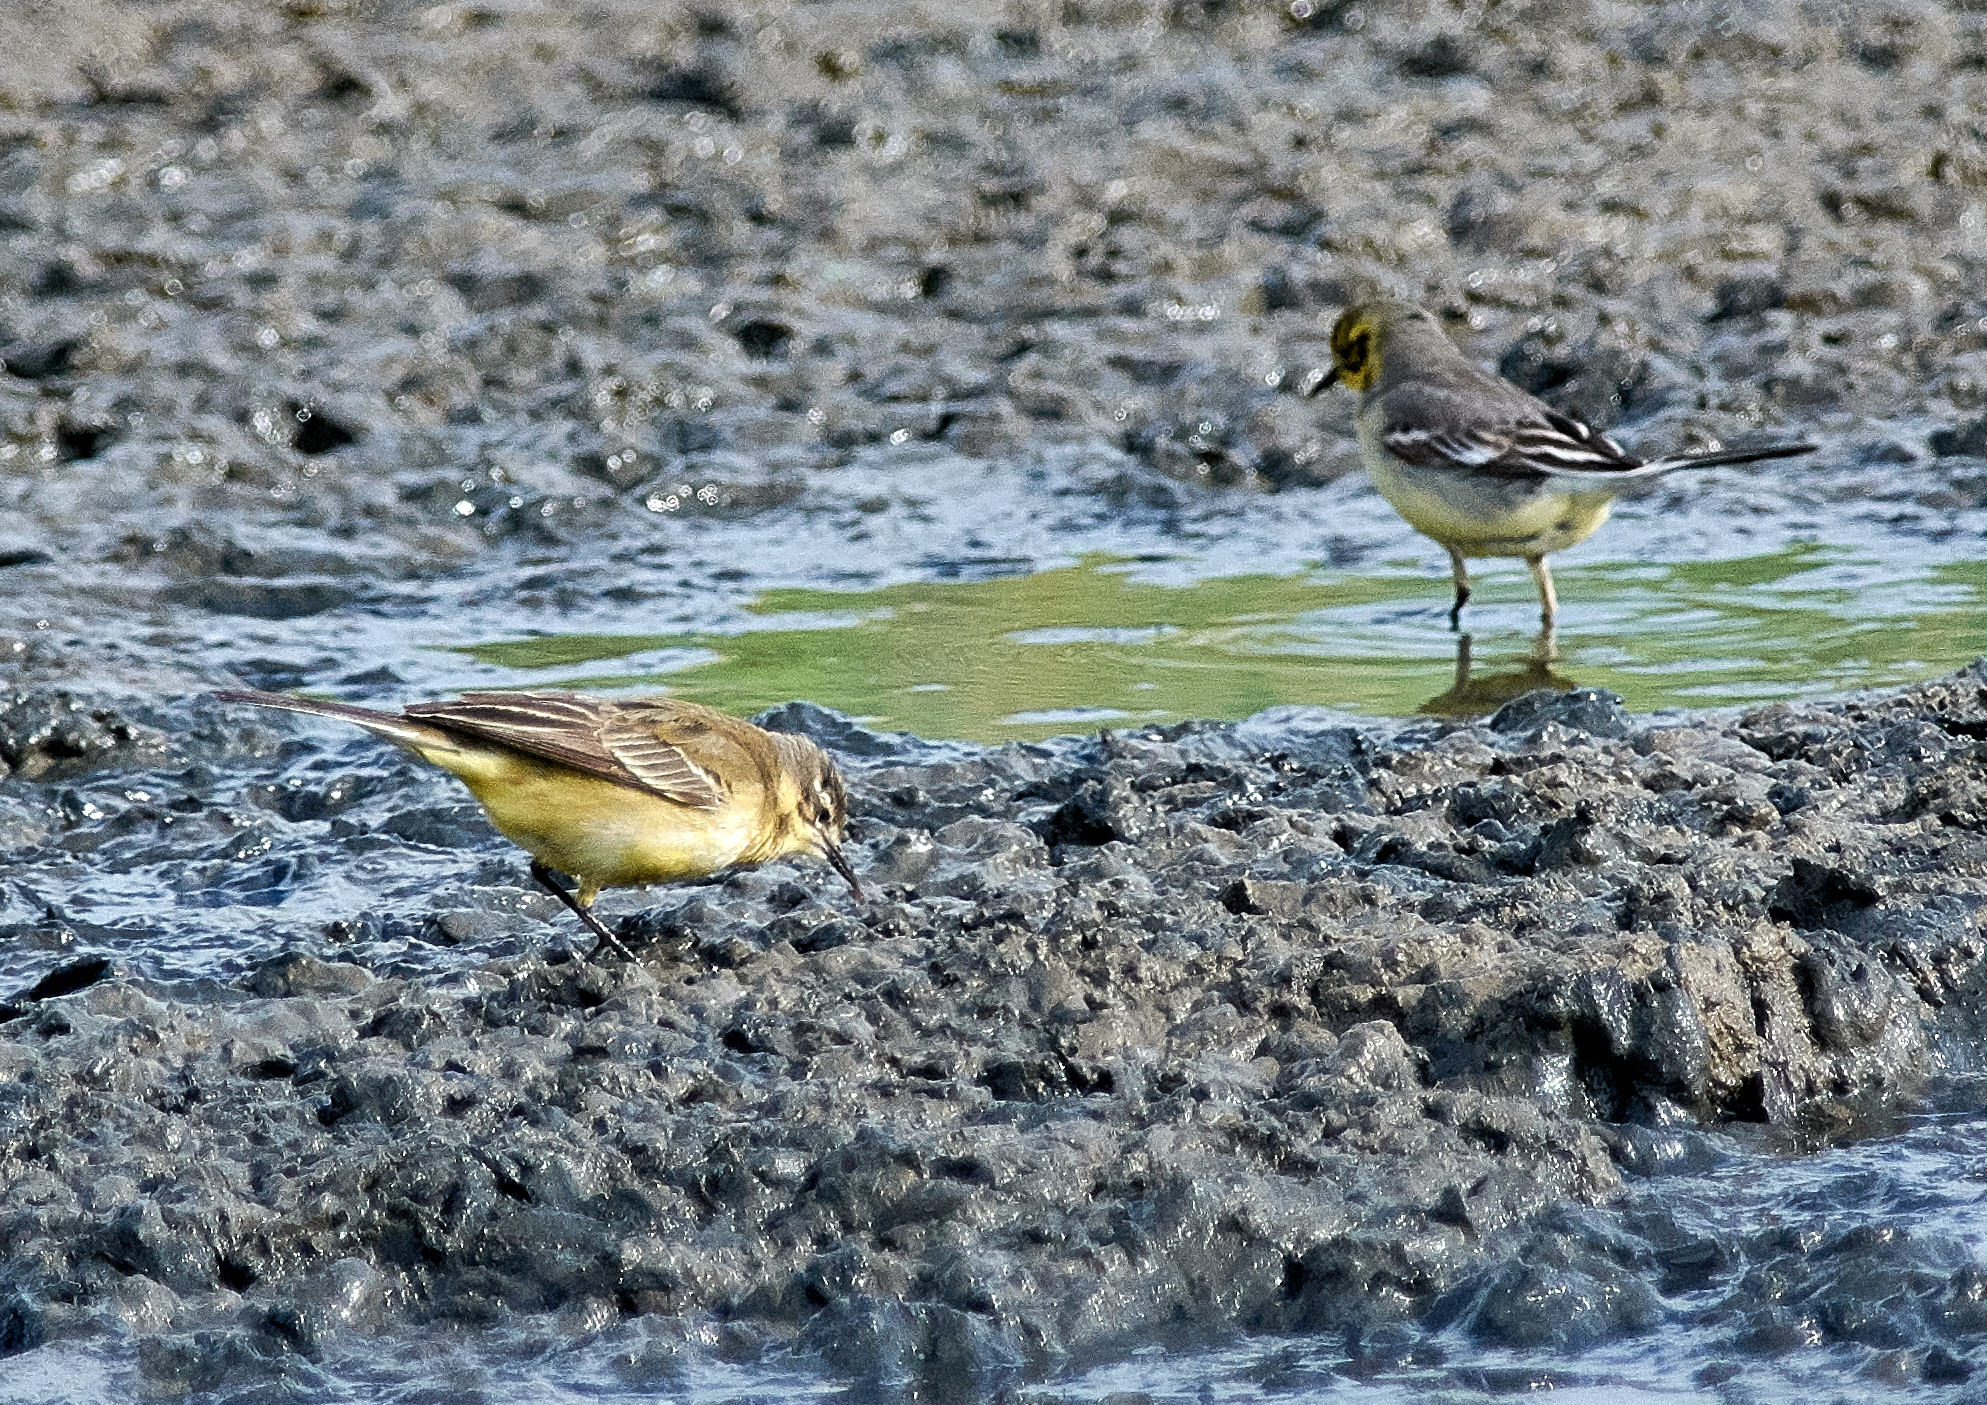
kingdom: Animalia
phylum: Chordata
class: Aves
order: Passeriformes
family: Motacillidae
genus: Motacilla
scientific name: Motacilla flava
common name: Western yellow wagtail
